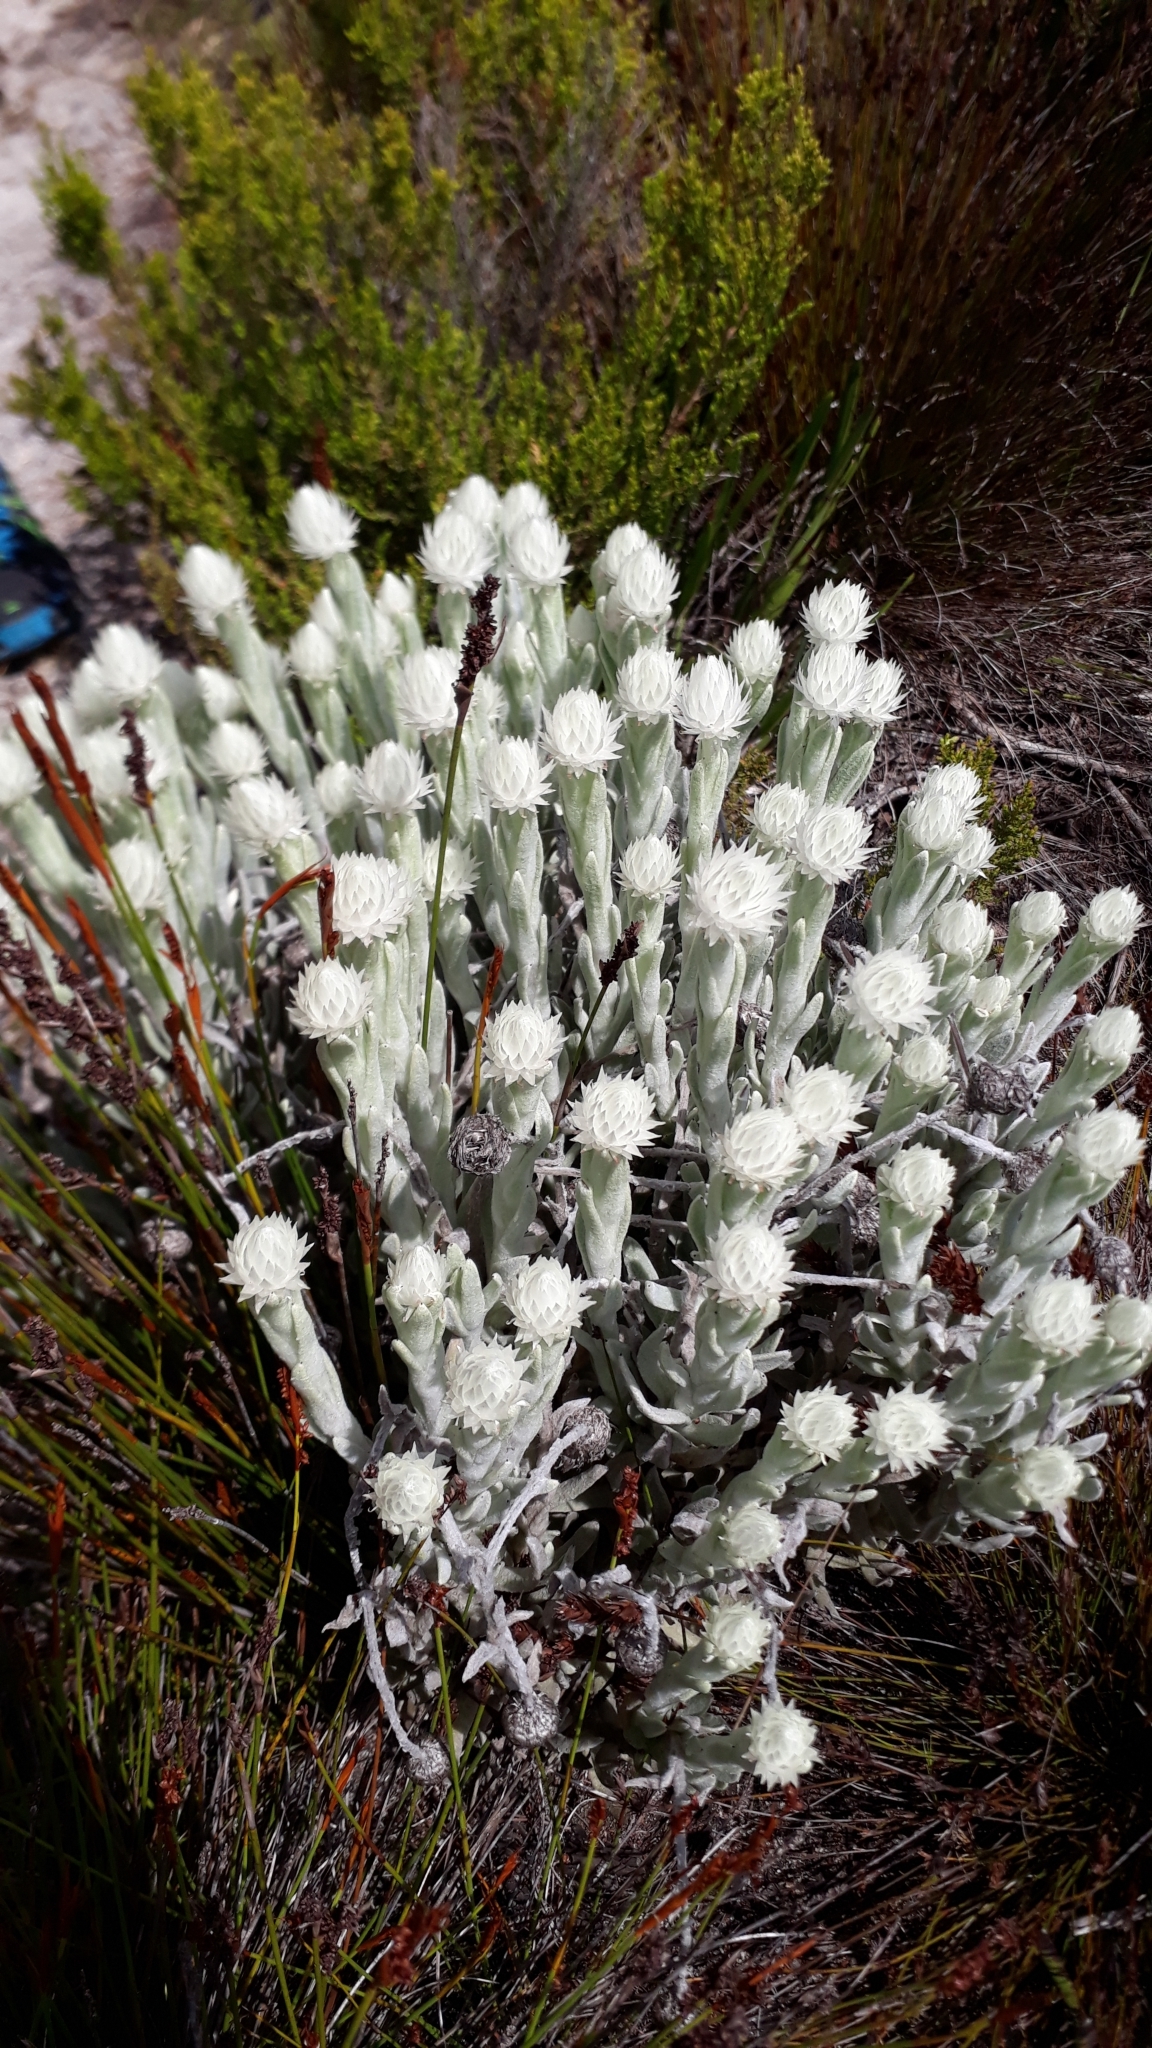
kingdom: Plantae
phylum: Tracheophyta
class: Magnoliopsida
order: Asterales
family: Asteraceae
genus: Syncarpha
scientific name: Syncarpha vestita
